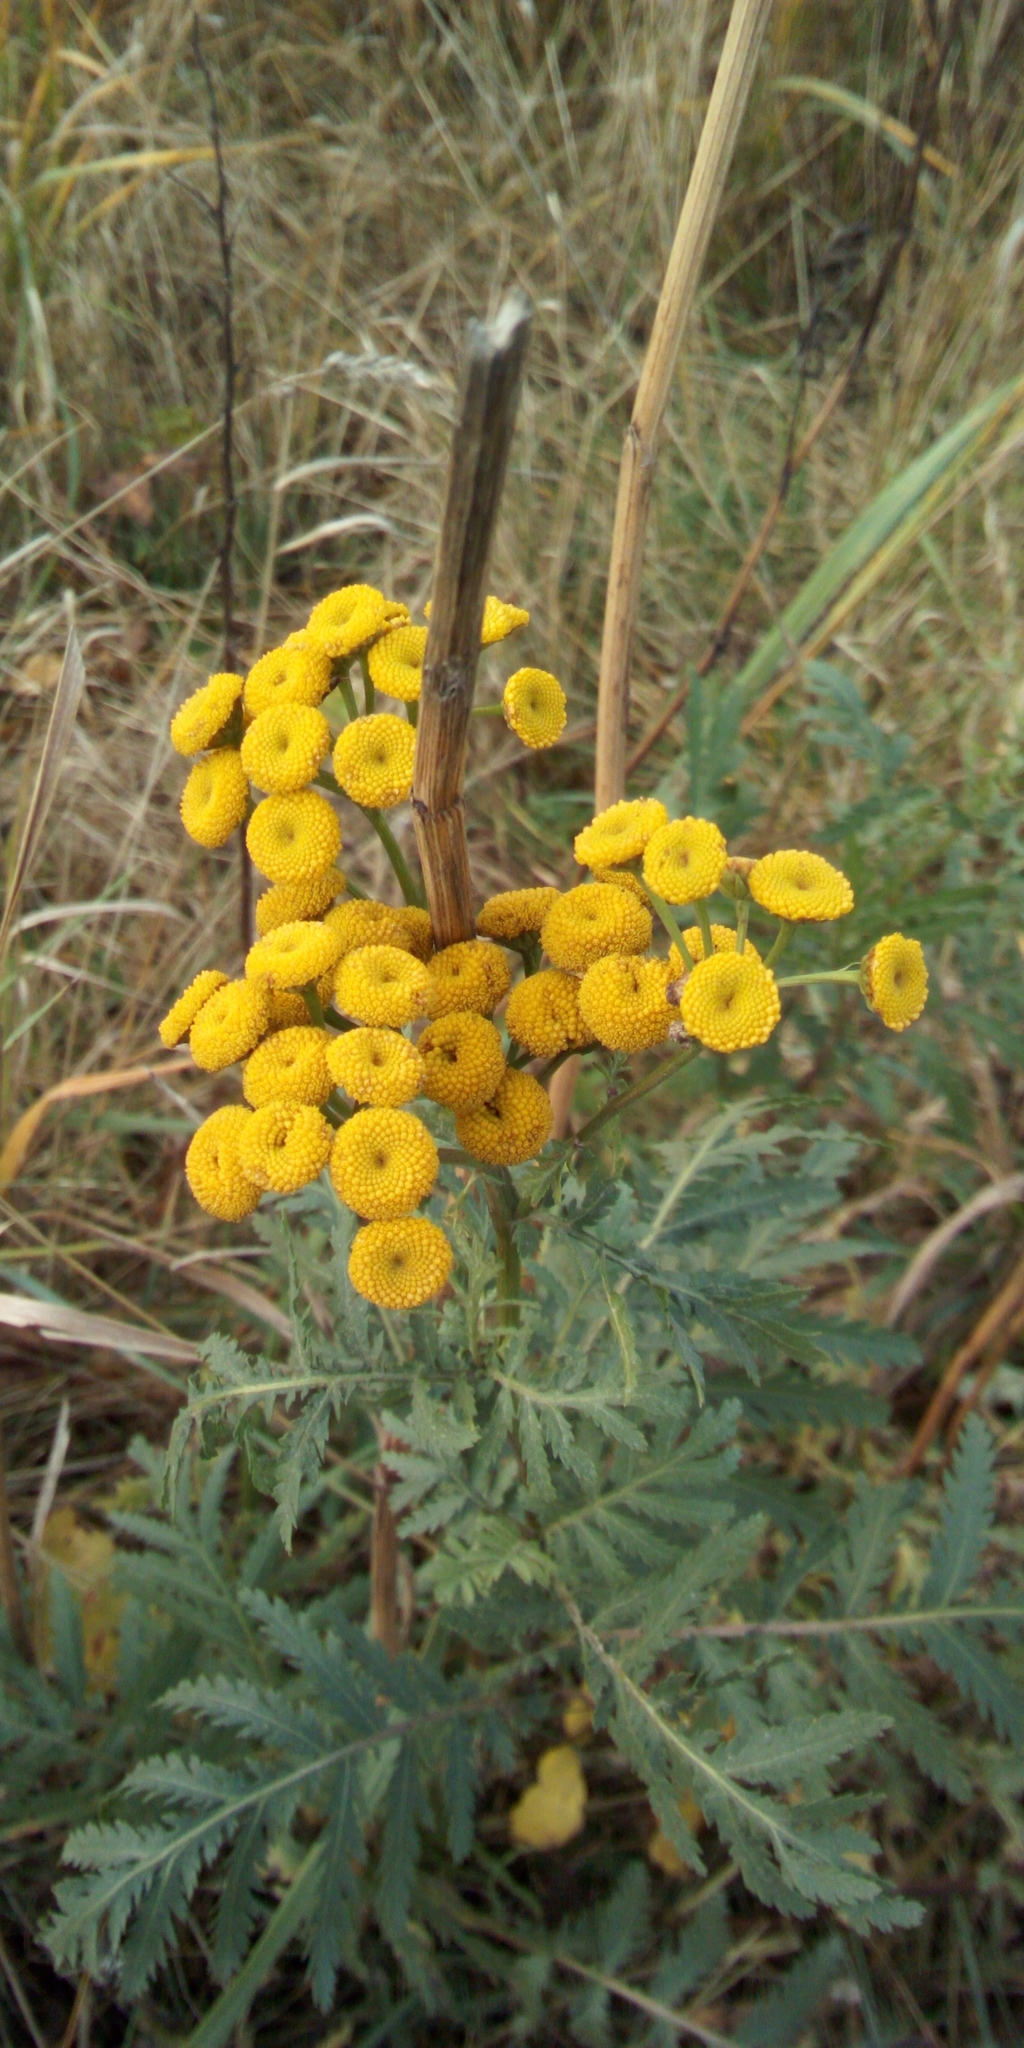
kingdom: Plantae
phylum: Tracheophyta
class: Magnoliopsida
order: Asterales
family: Asteraceae
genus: Tanacetum
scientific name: Tanacetum vulgare
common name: Common tansy
